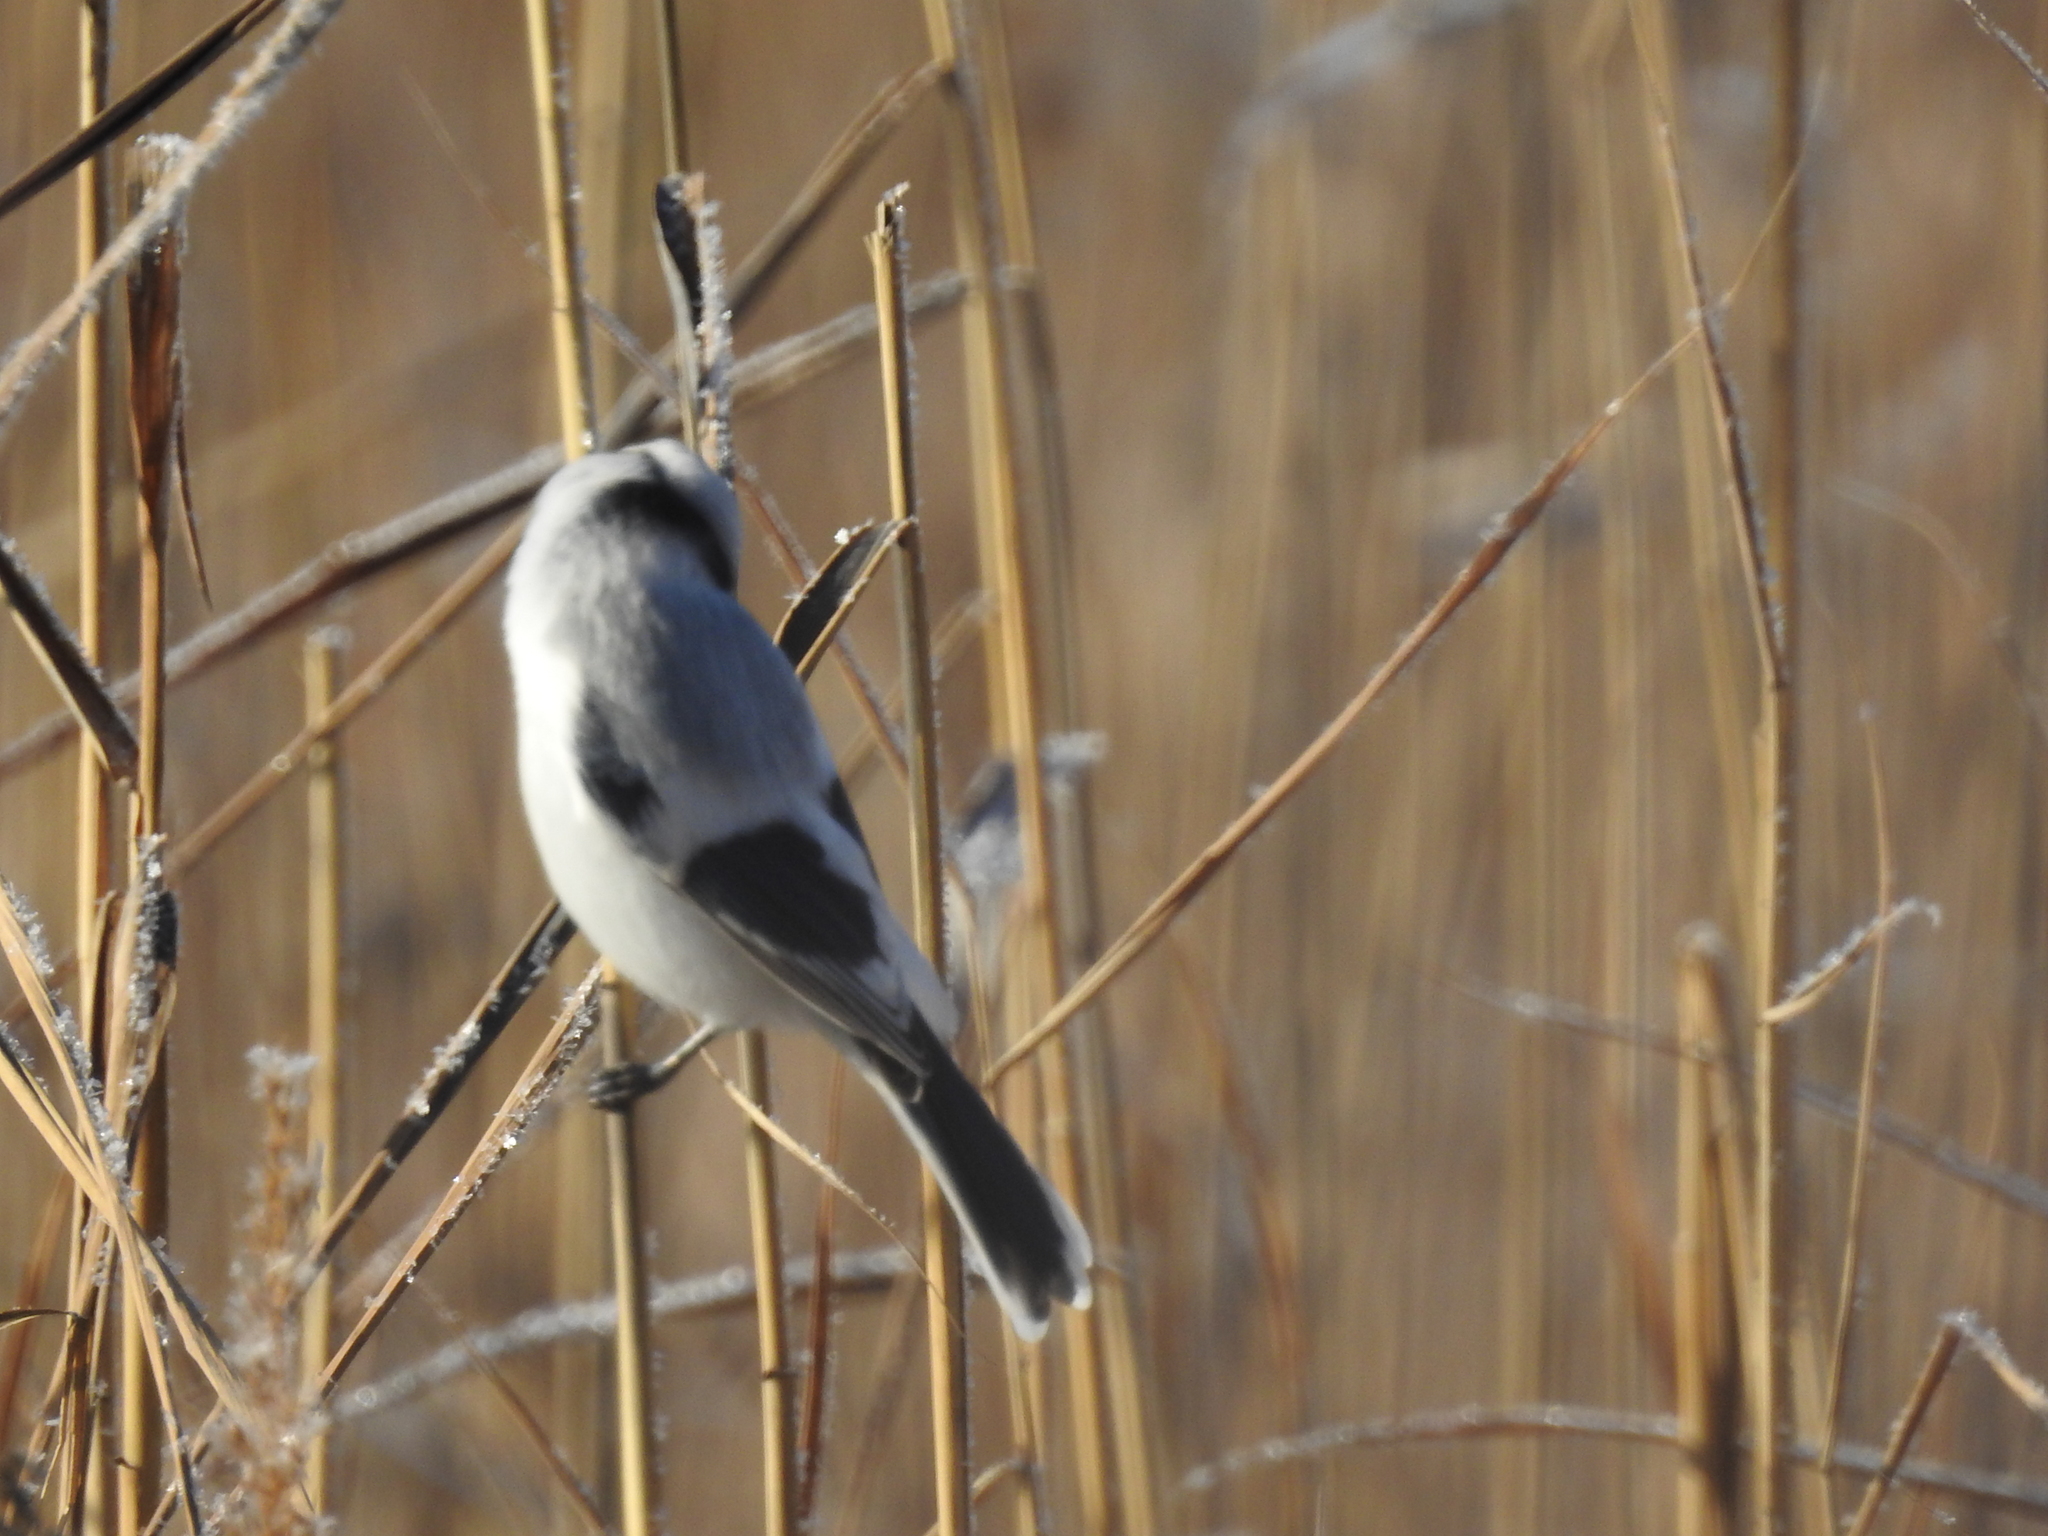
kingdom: Animalia
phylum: Chordata
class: Aves
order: Passeriformes
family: Paridae
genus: Cyanistes
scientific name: Cyanistes cyanus
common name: Azure tit
